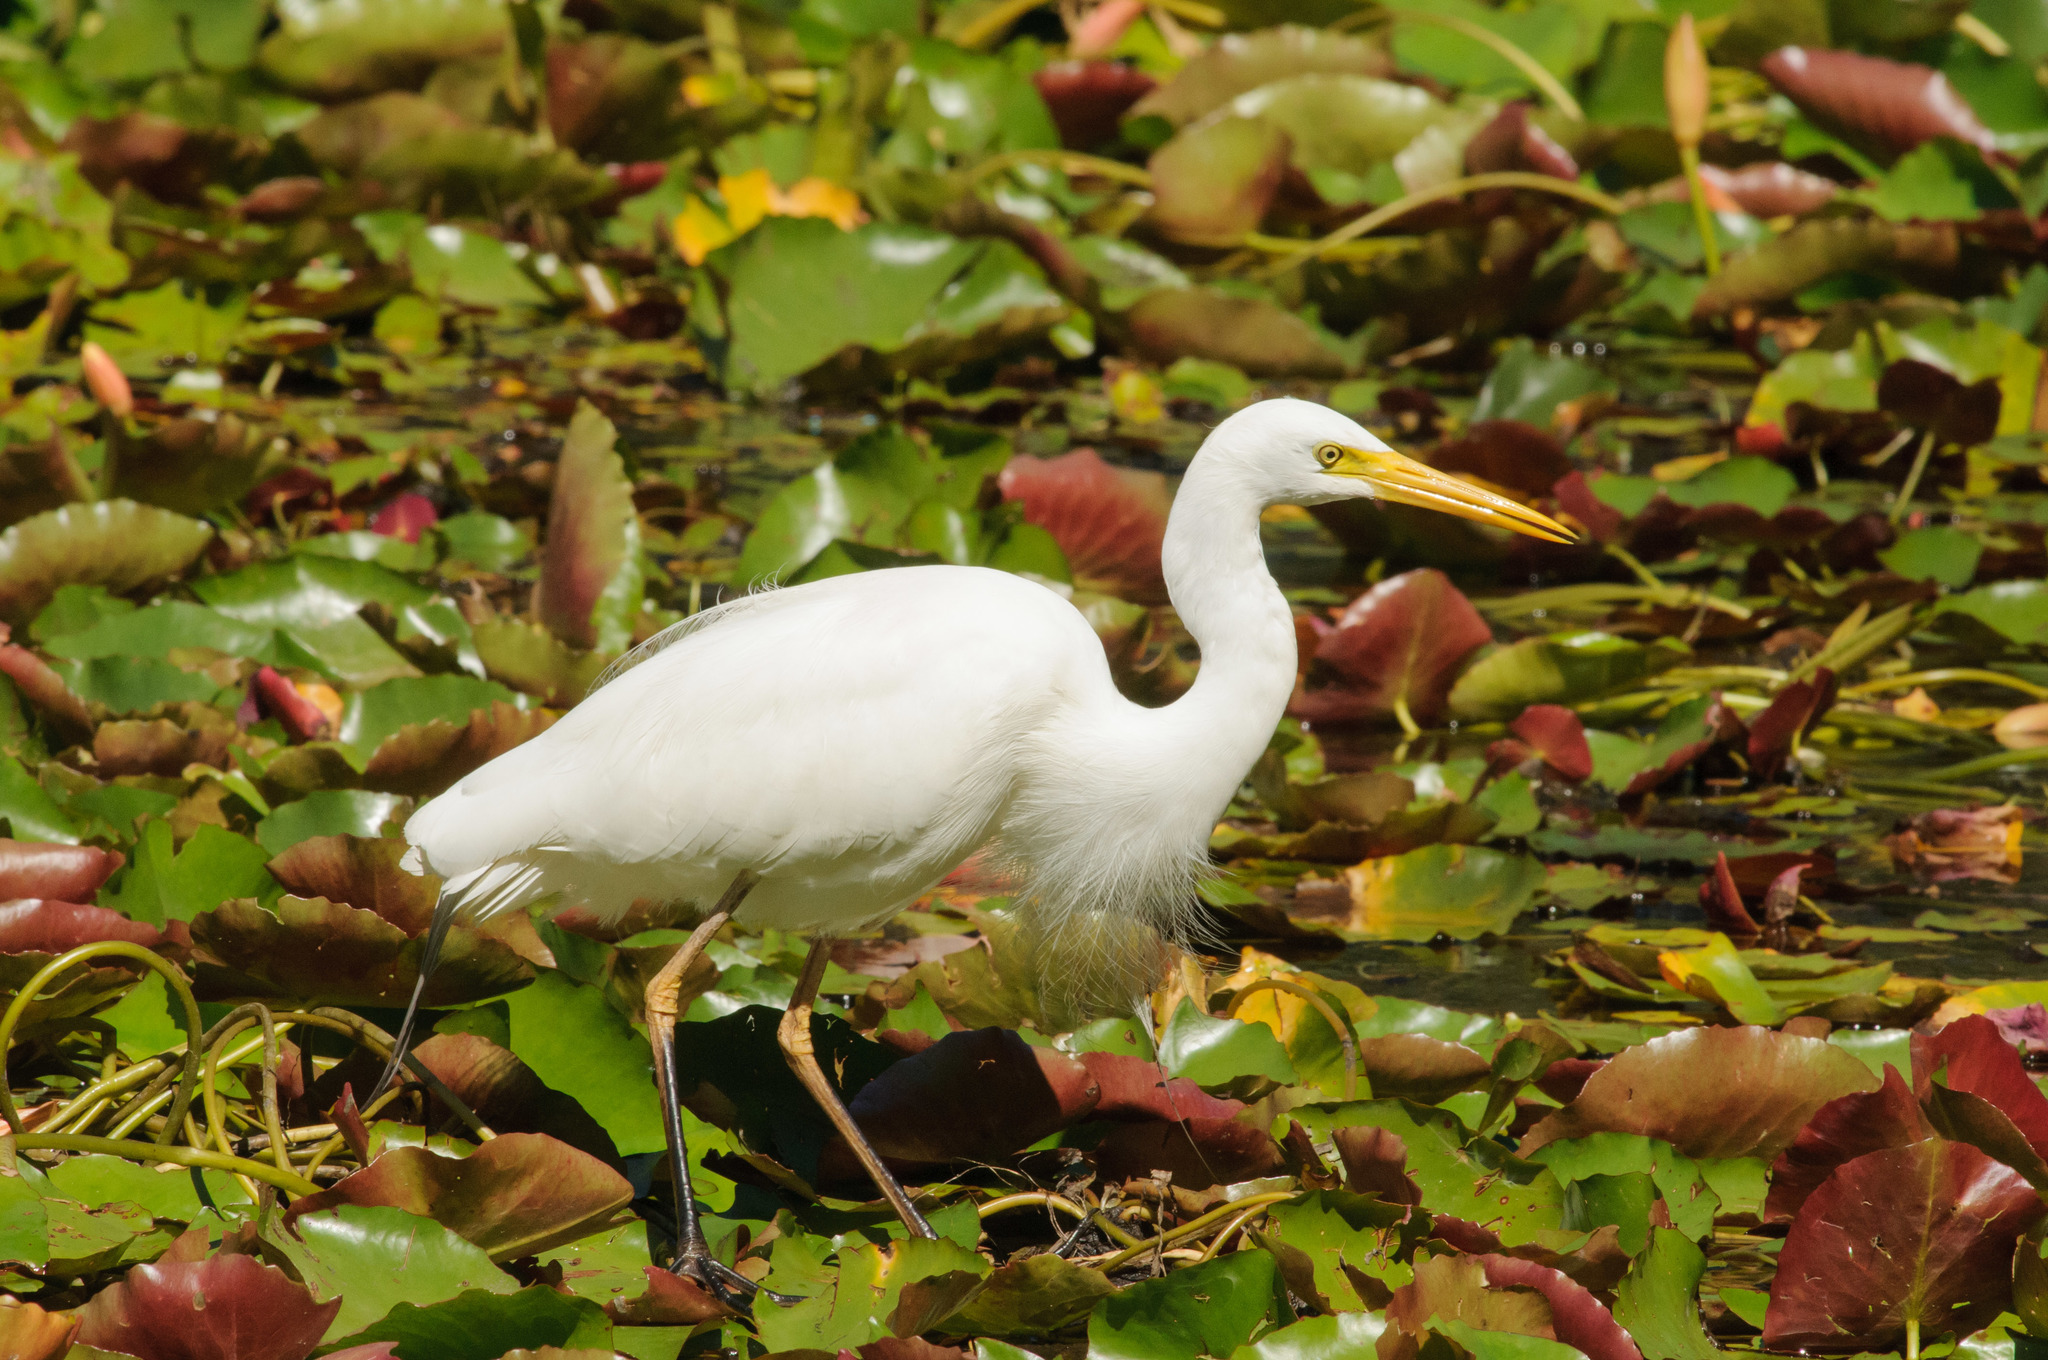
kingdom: Animalia
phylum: Chordata
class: Aves
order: Pelecaniformes
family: Ardeidae
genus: Egretta
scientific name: Egretta intermedia
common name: Intermediate egret
